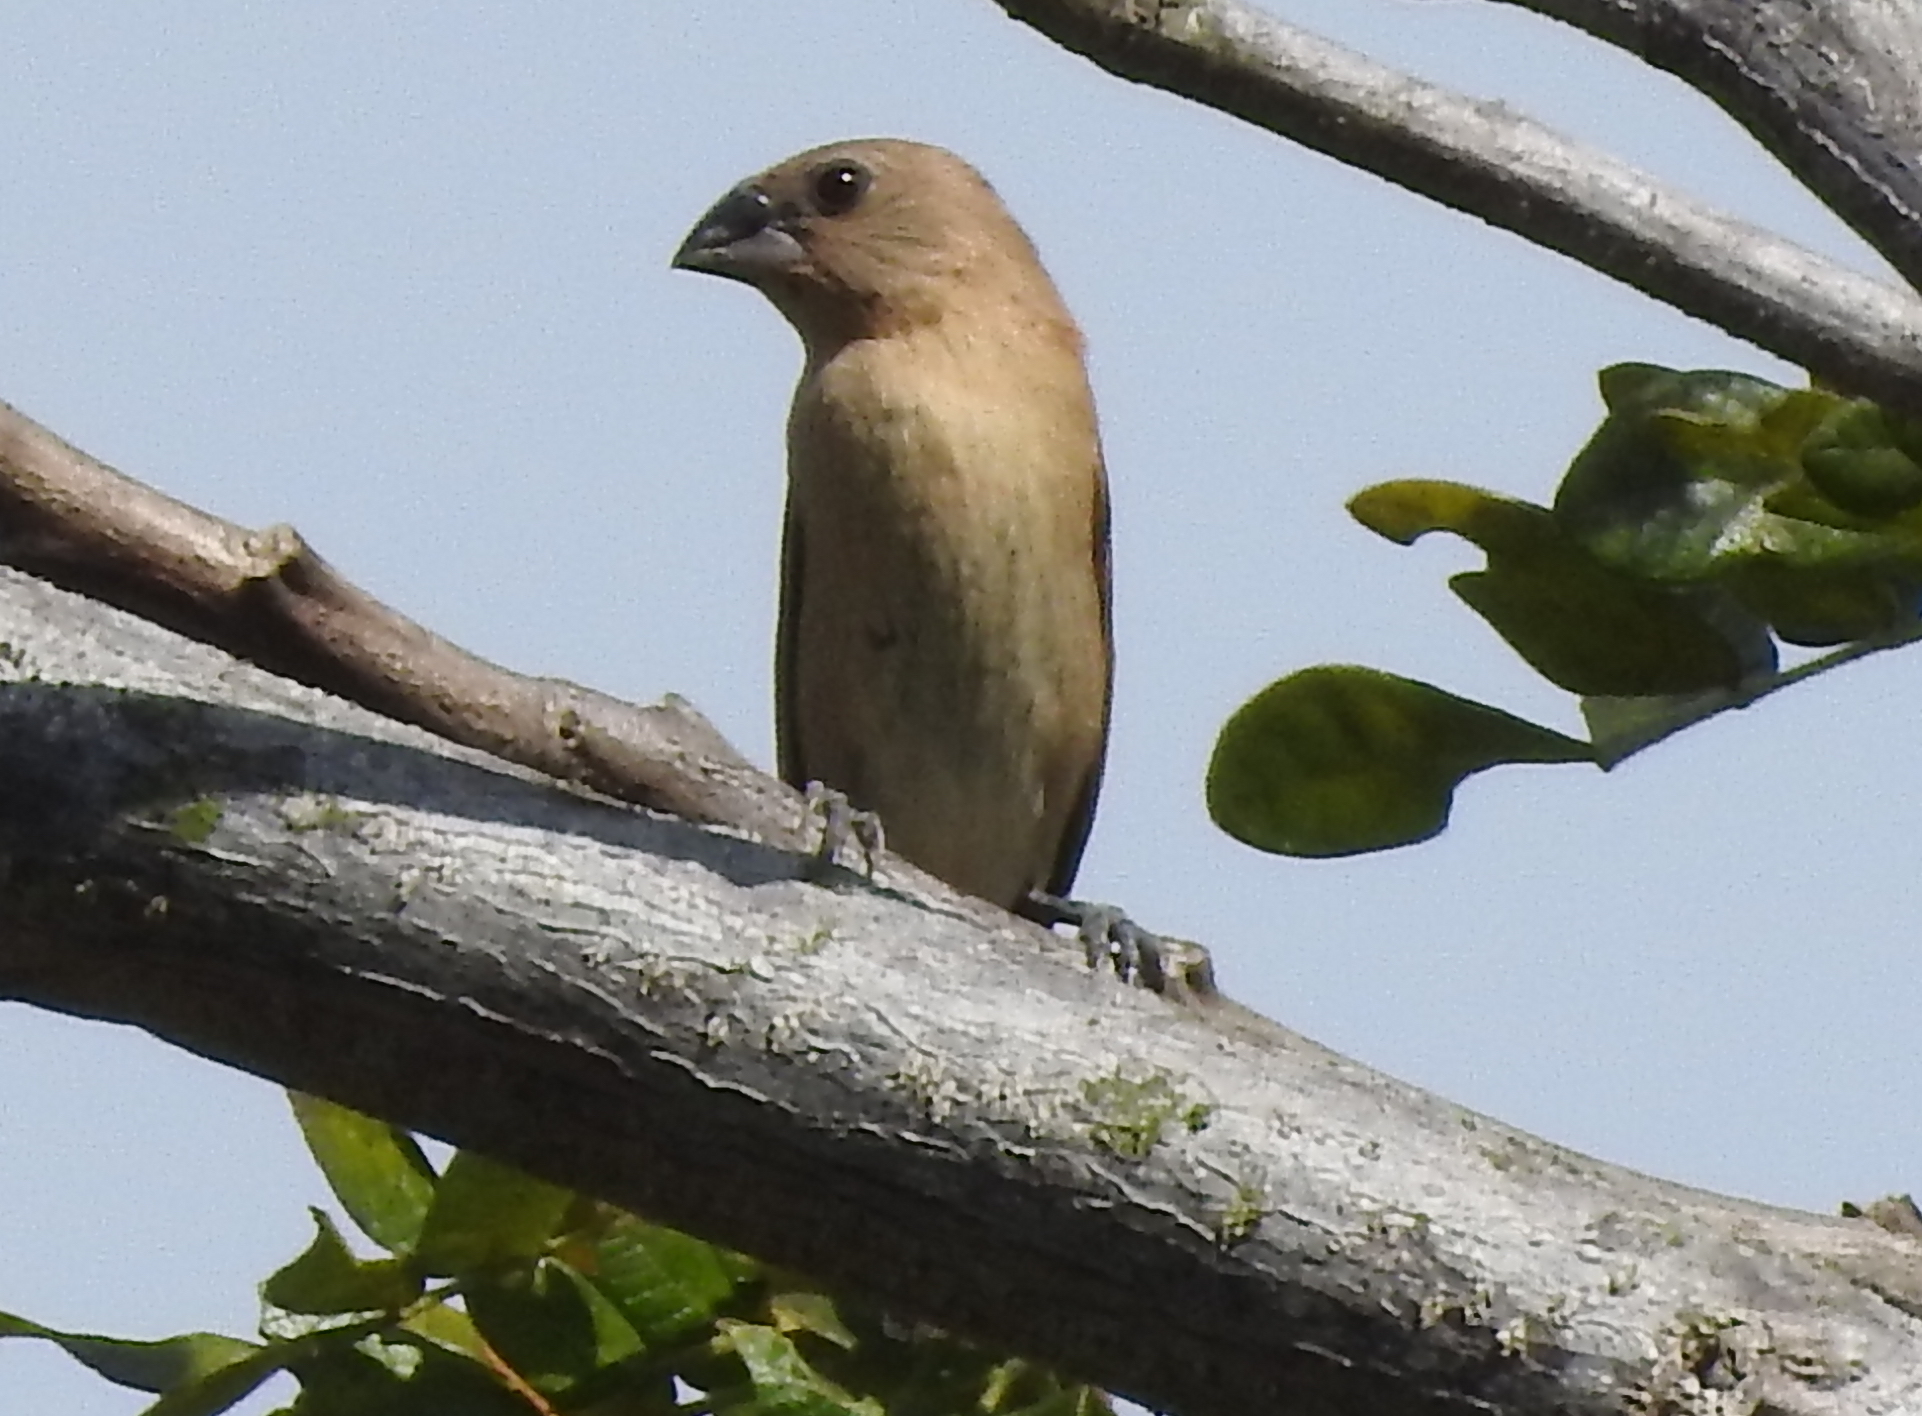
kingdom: Animalia
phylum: Chordata
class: Aves
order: Passeriformes
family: Estrildidae
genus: Lonchura
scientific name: Lonchura punctulata
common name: Scaly-breasted munia
